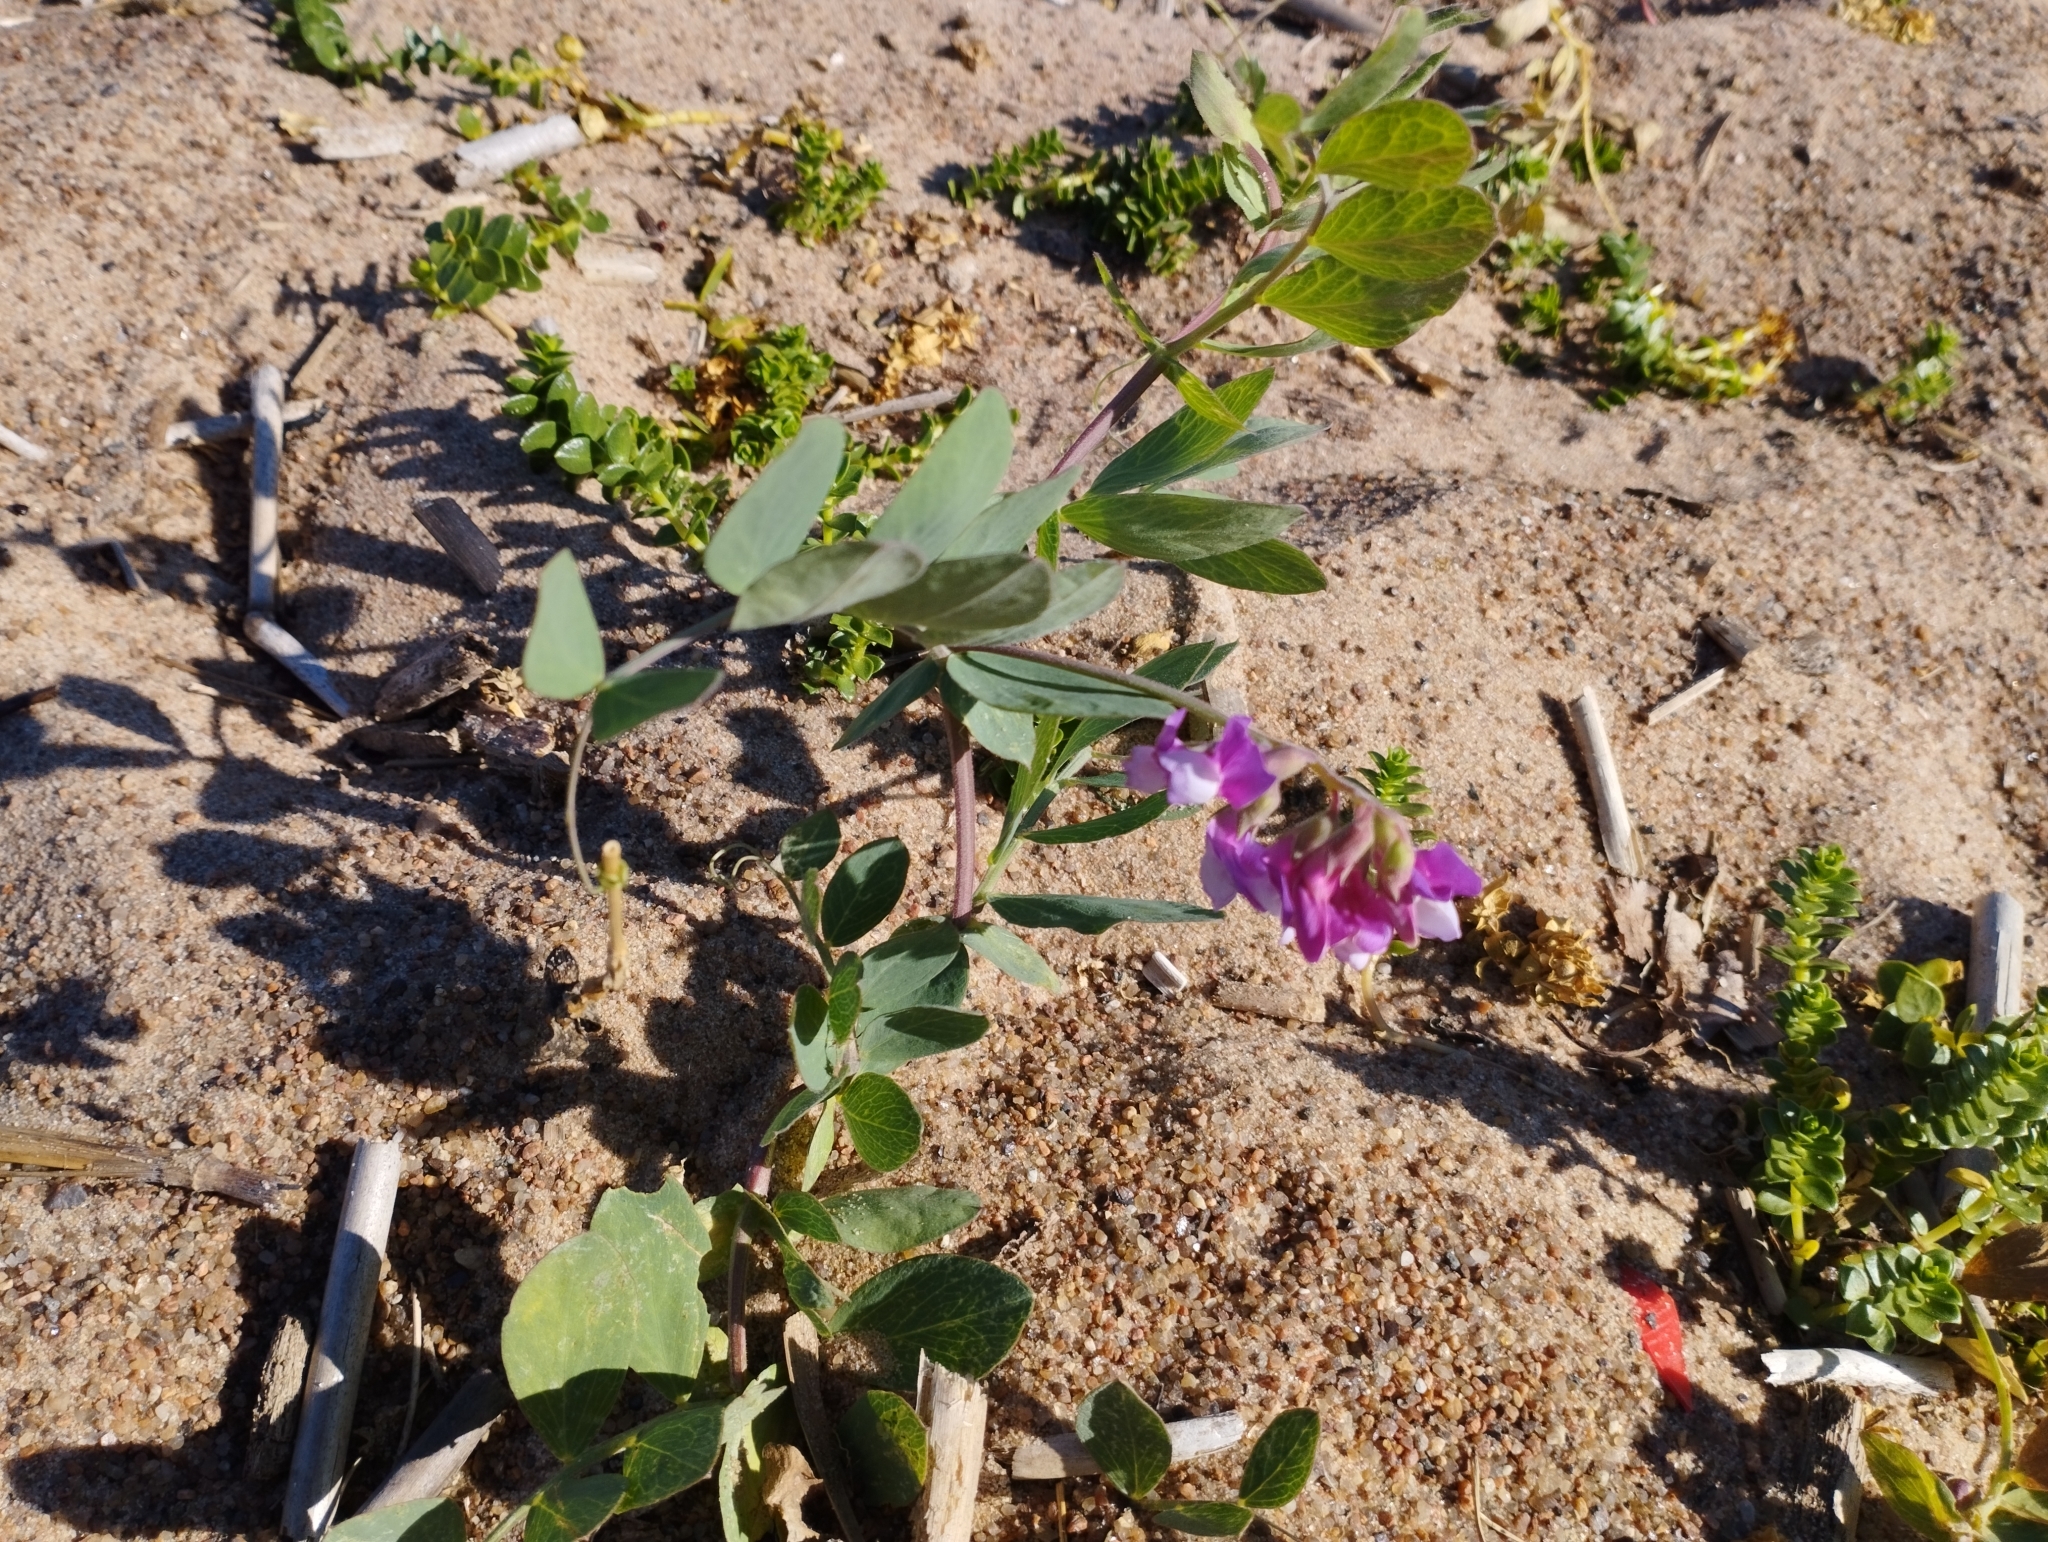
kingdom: Plantae
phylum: Tracheophyta
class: Magnoliopsida
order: Fabales
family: Fabaceae
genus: Lathyrus
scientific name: Lathyrus japonicus
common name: Sea pea
